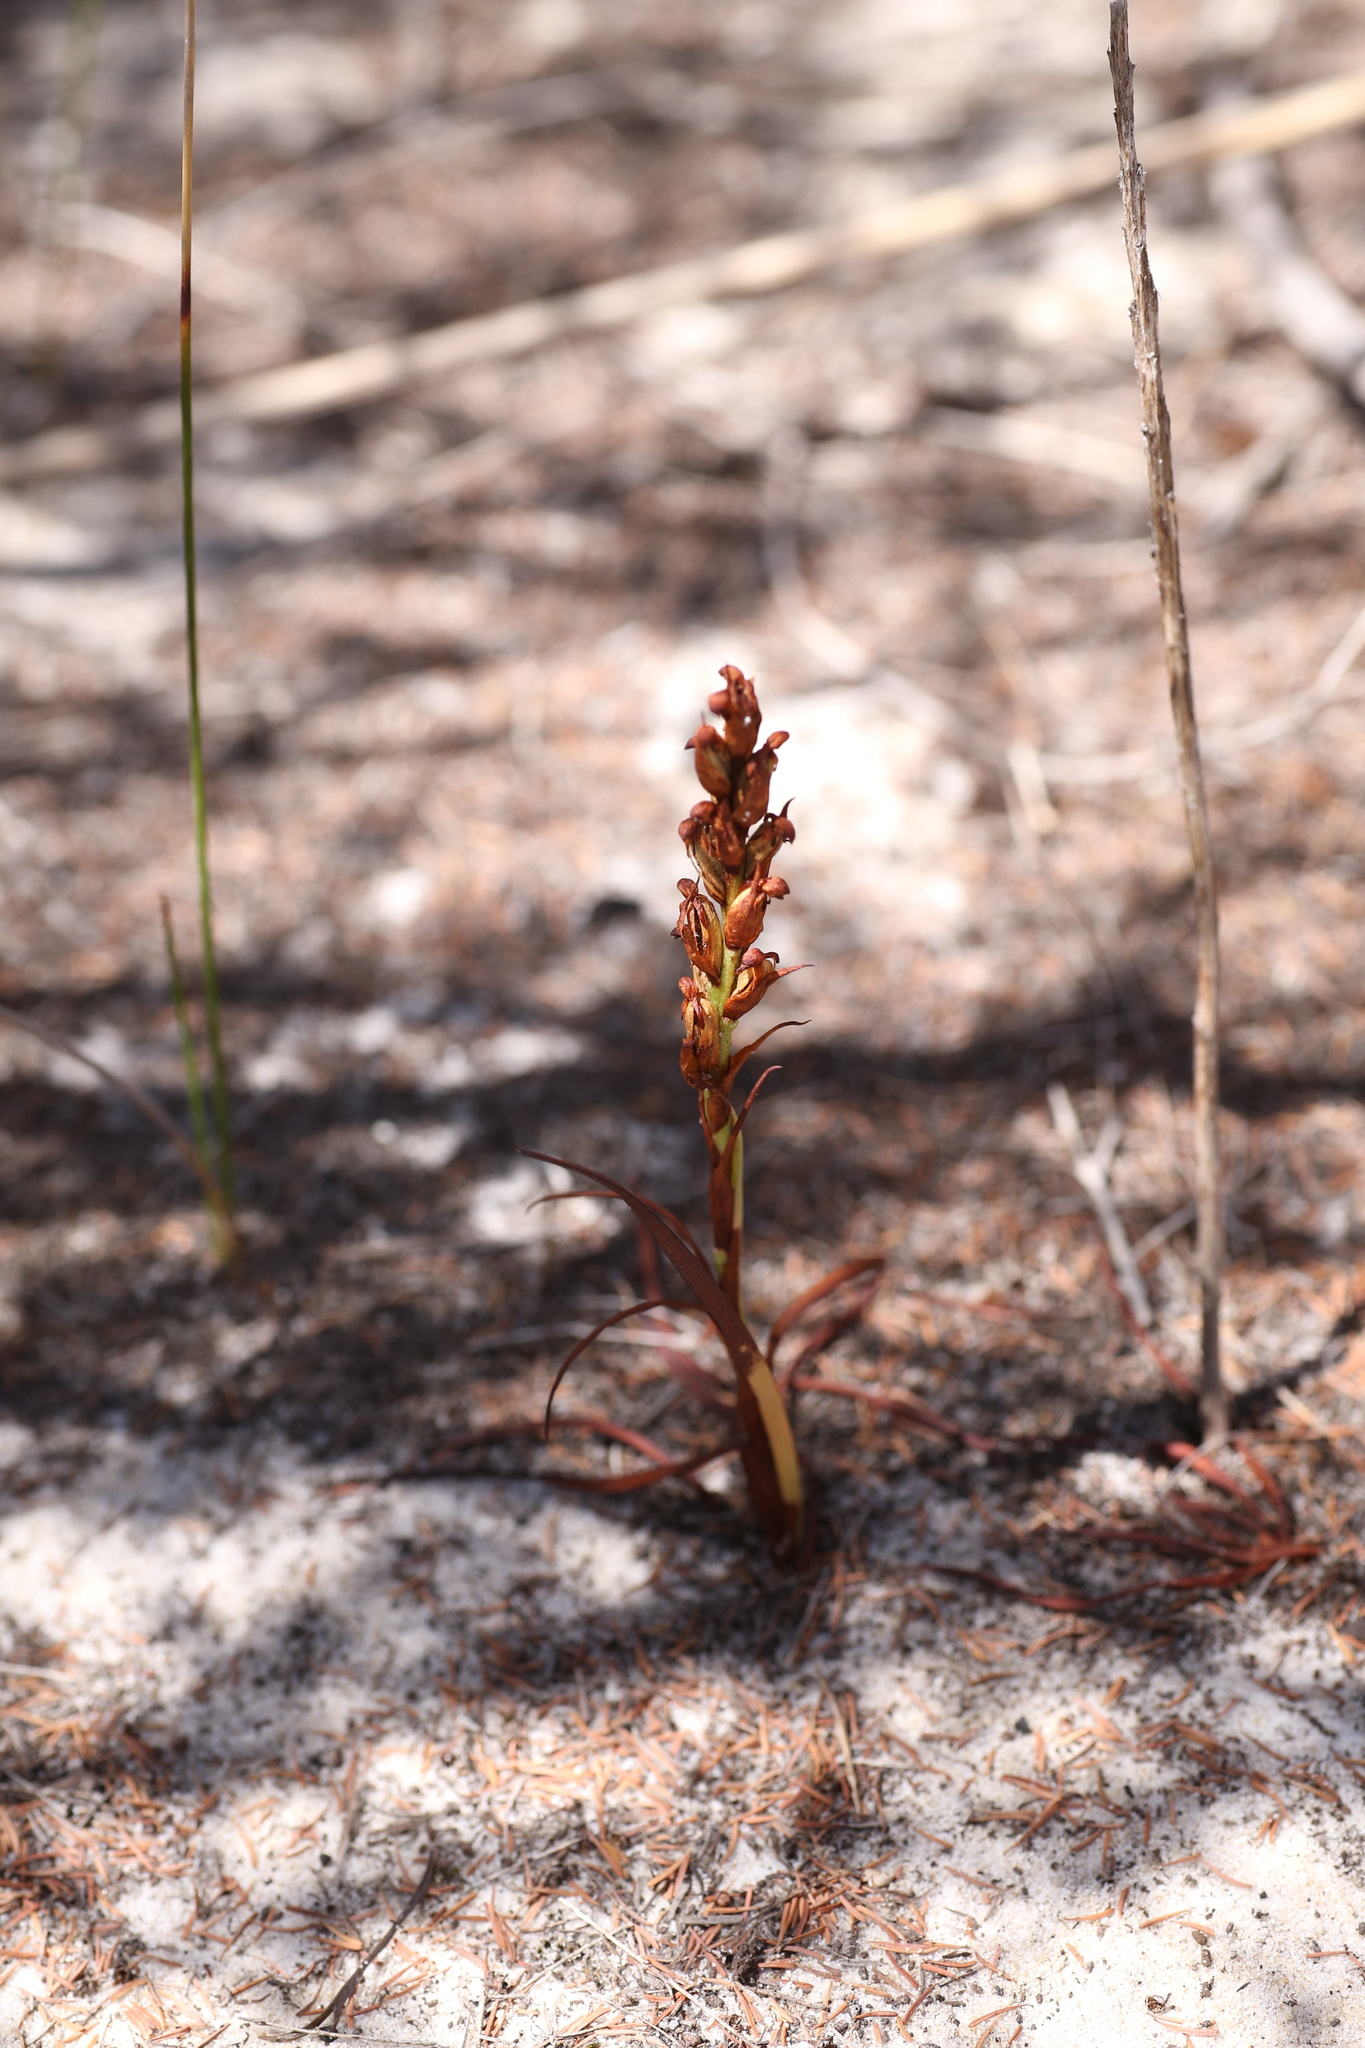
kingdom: Plantae
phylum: Tracheophyta
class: Liliopsida
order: Asparagales
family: Orchidaceae
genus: Disa
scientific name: Disa bracteata
